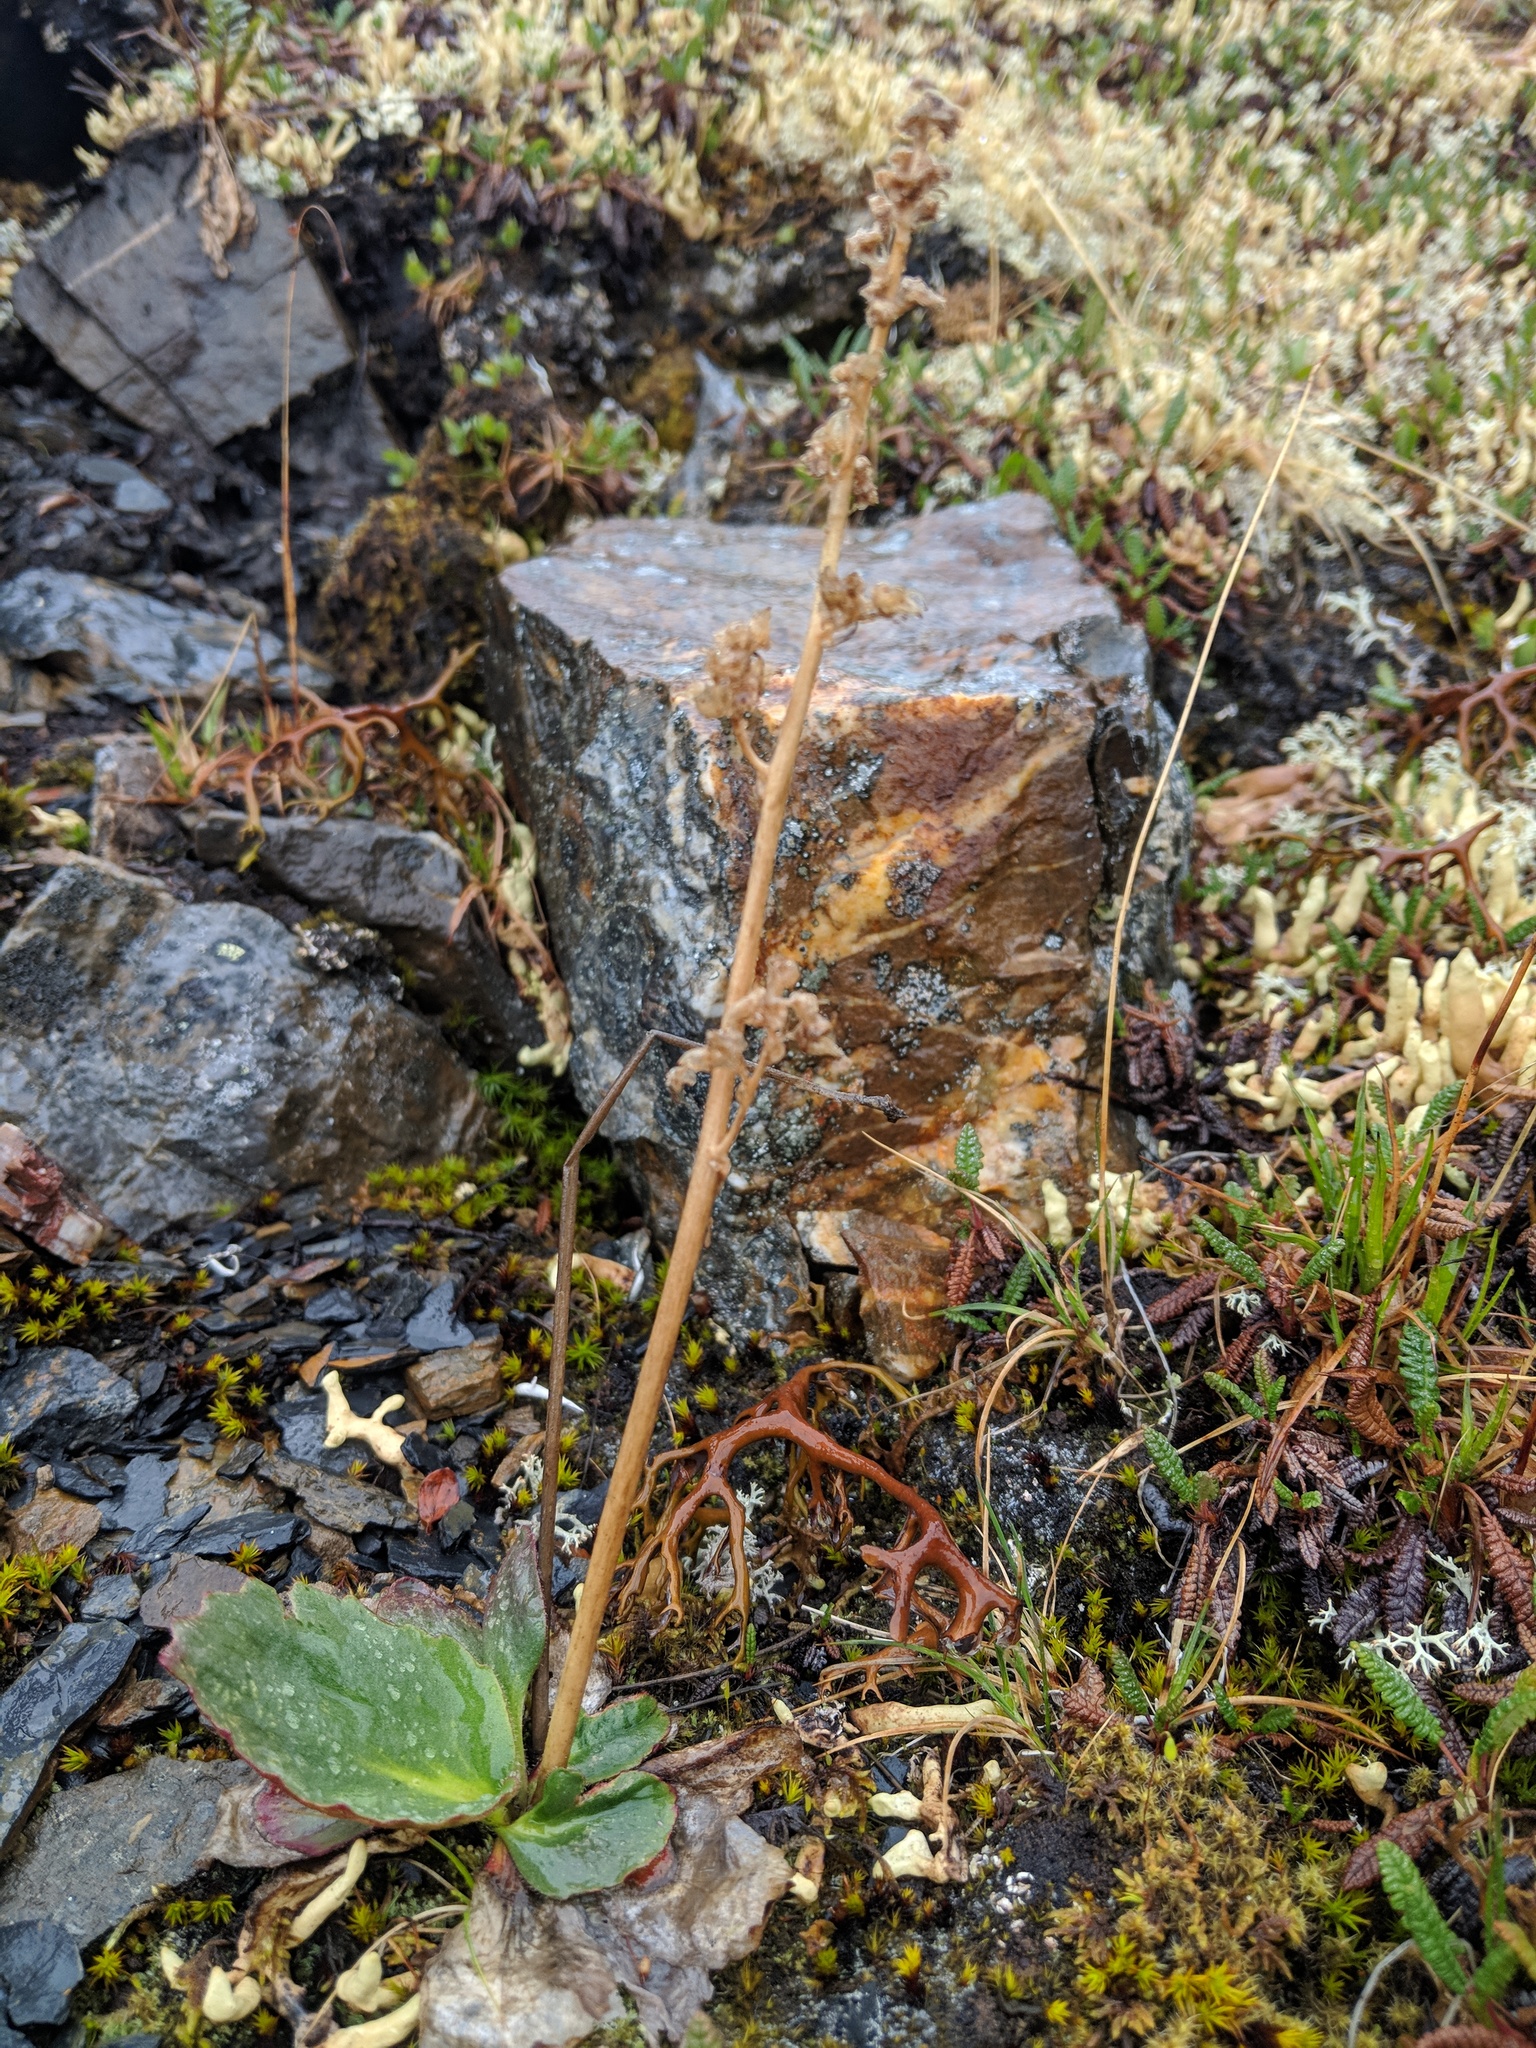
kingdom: Plantae
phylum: Tracheophyta
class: Magnoliopsida
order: Saxifragales
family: Saxifragaceae
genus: Micranthes
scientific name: Micranthes hieraciifolia
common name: Hawkweed-leaved saxifrage
